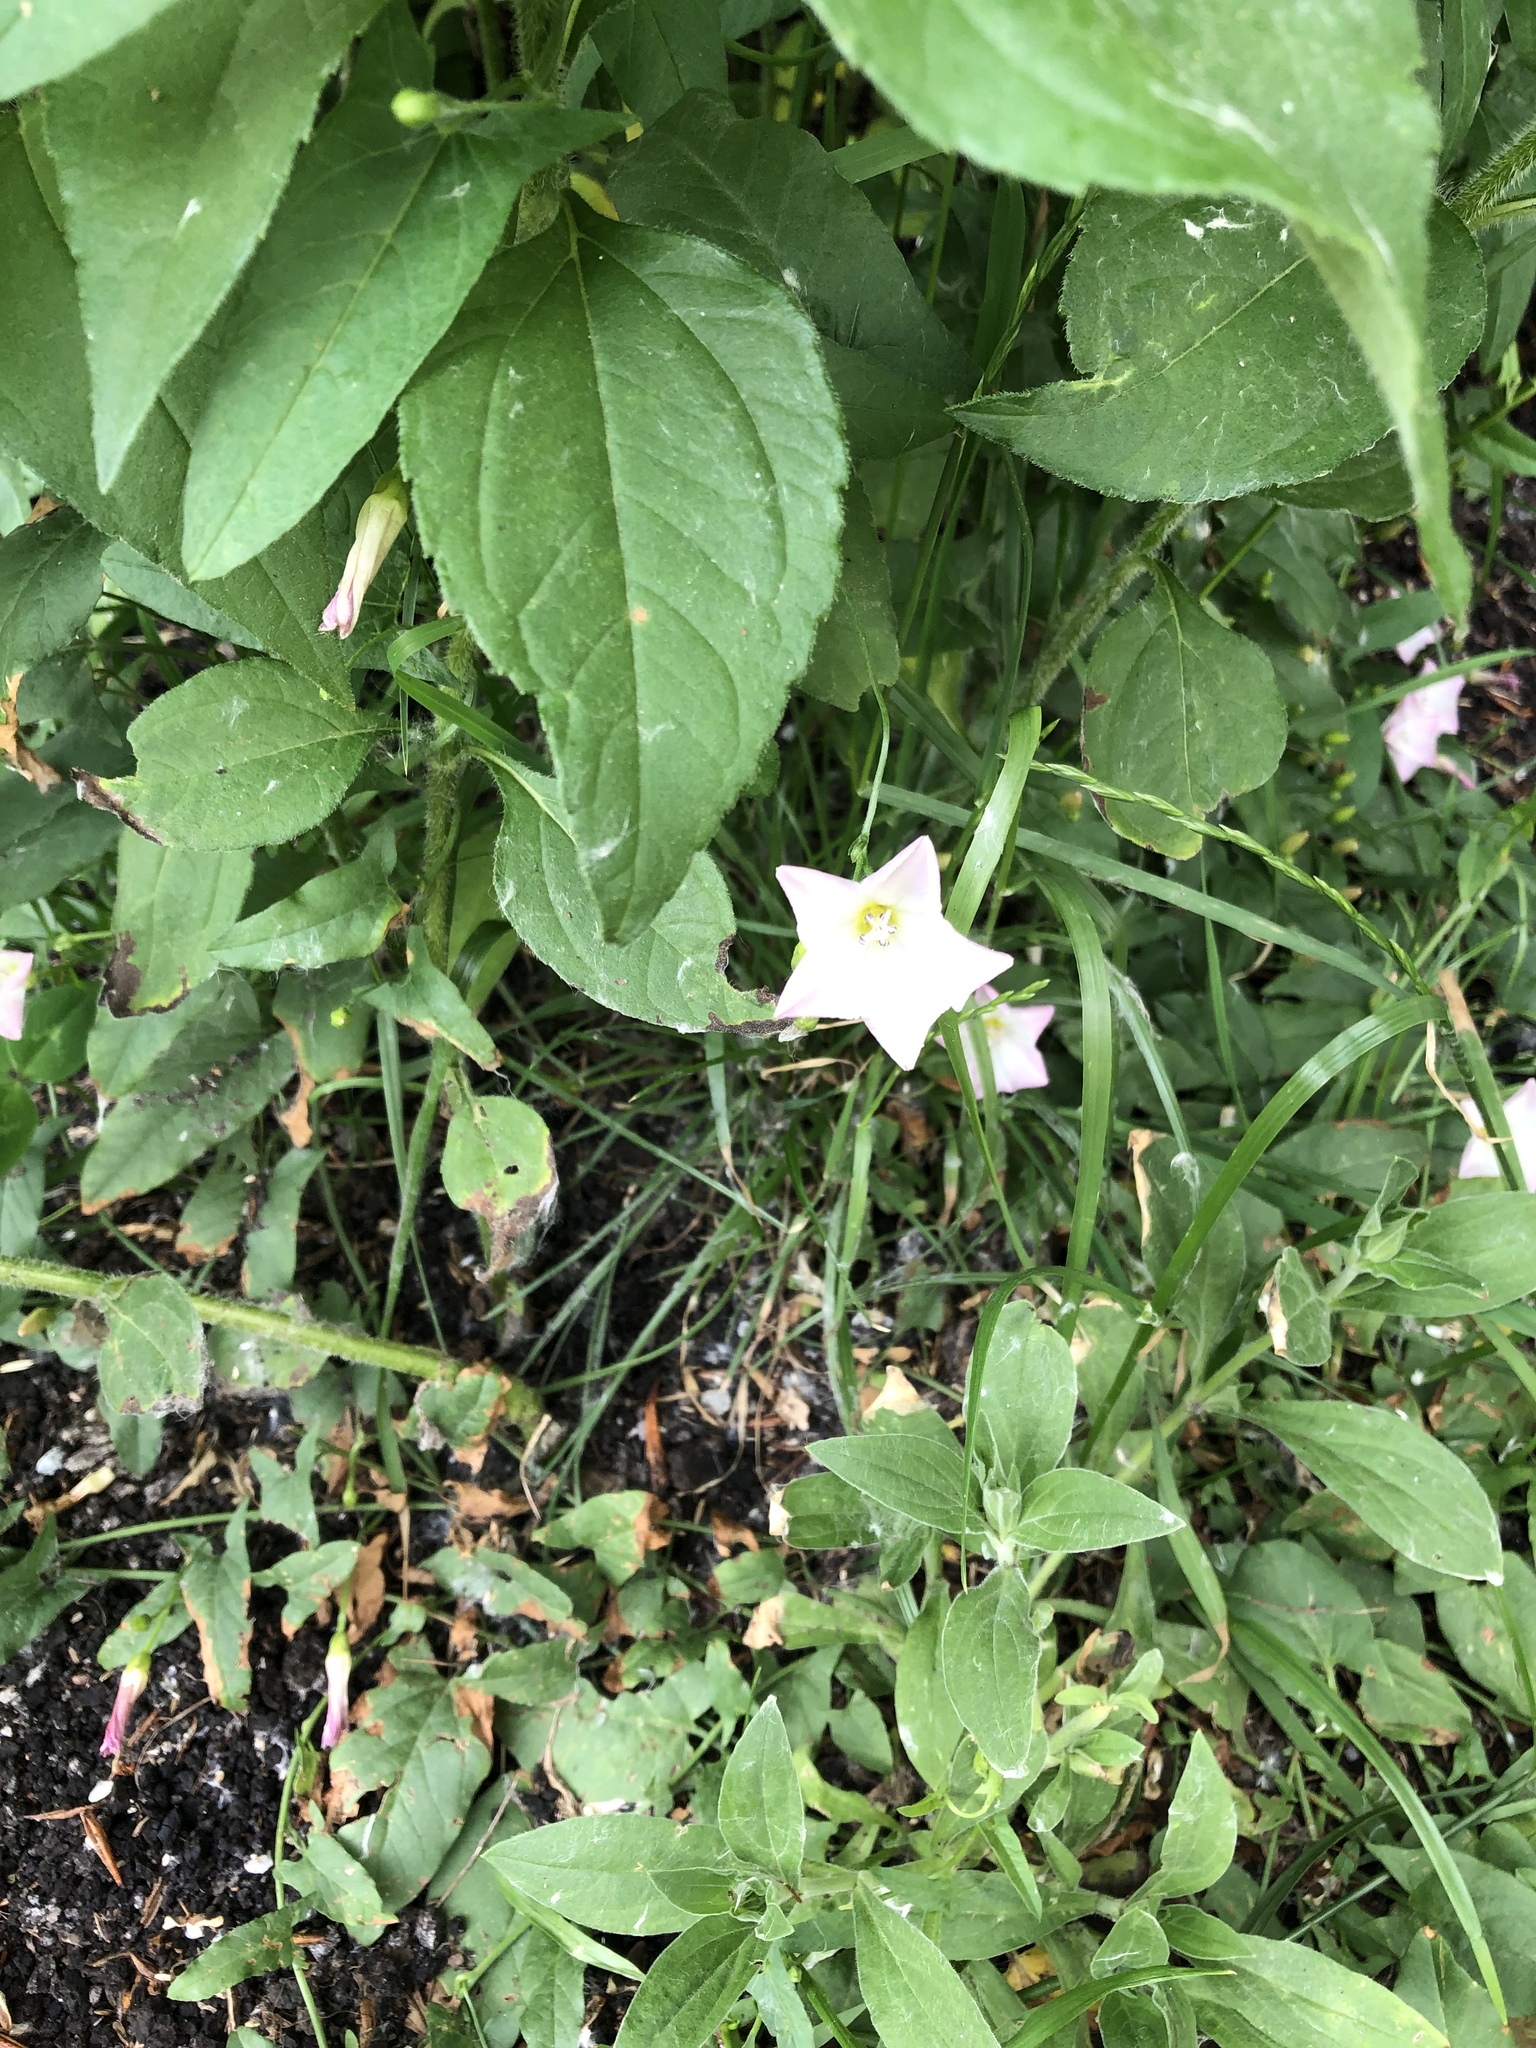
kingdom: Plantae
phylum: Tracheophyta
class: Magnoliopsida
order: Solanales
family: Convolvulaceae
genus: Convolvulus
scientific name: Convolvulus arvensis
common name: Field bindweed
